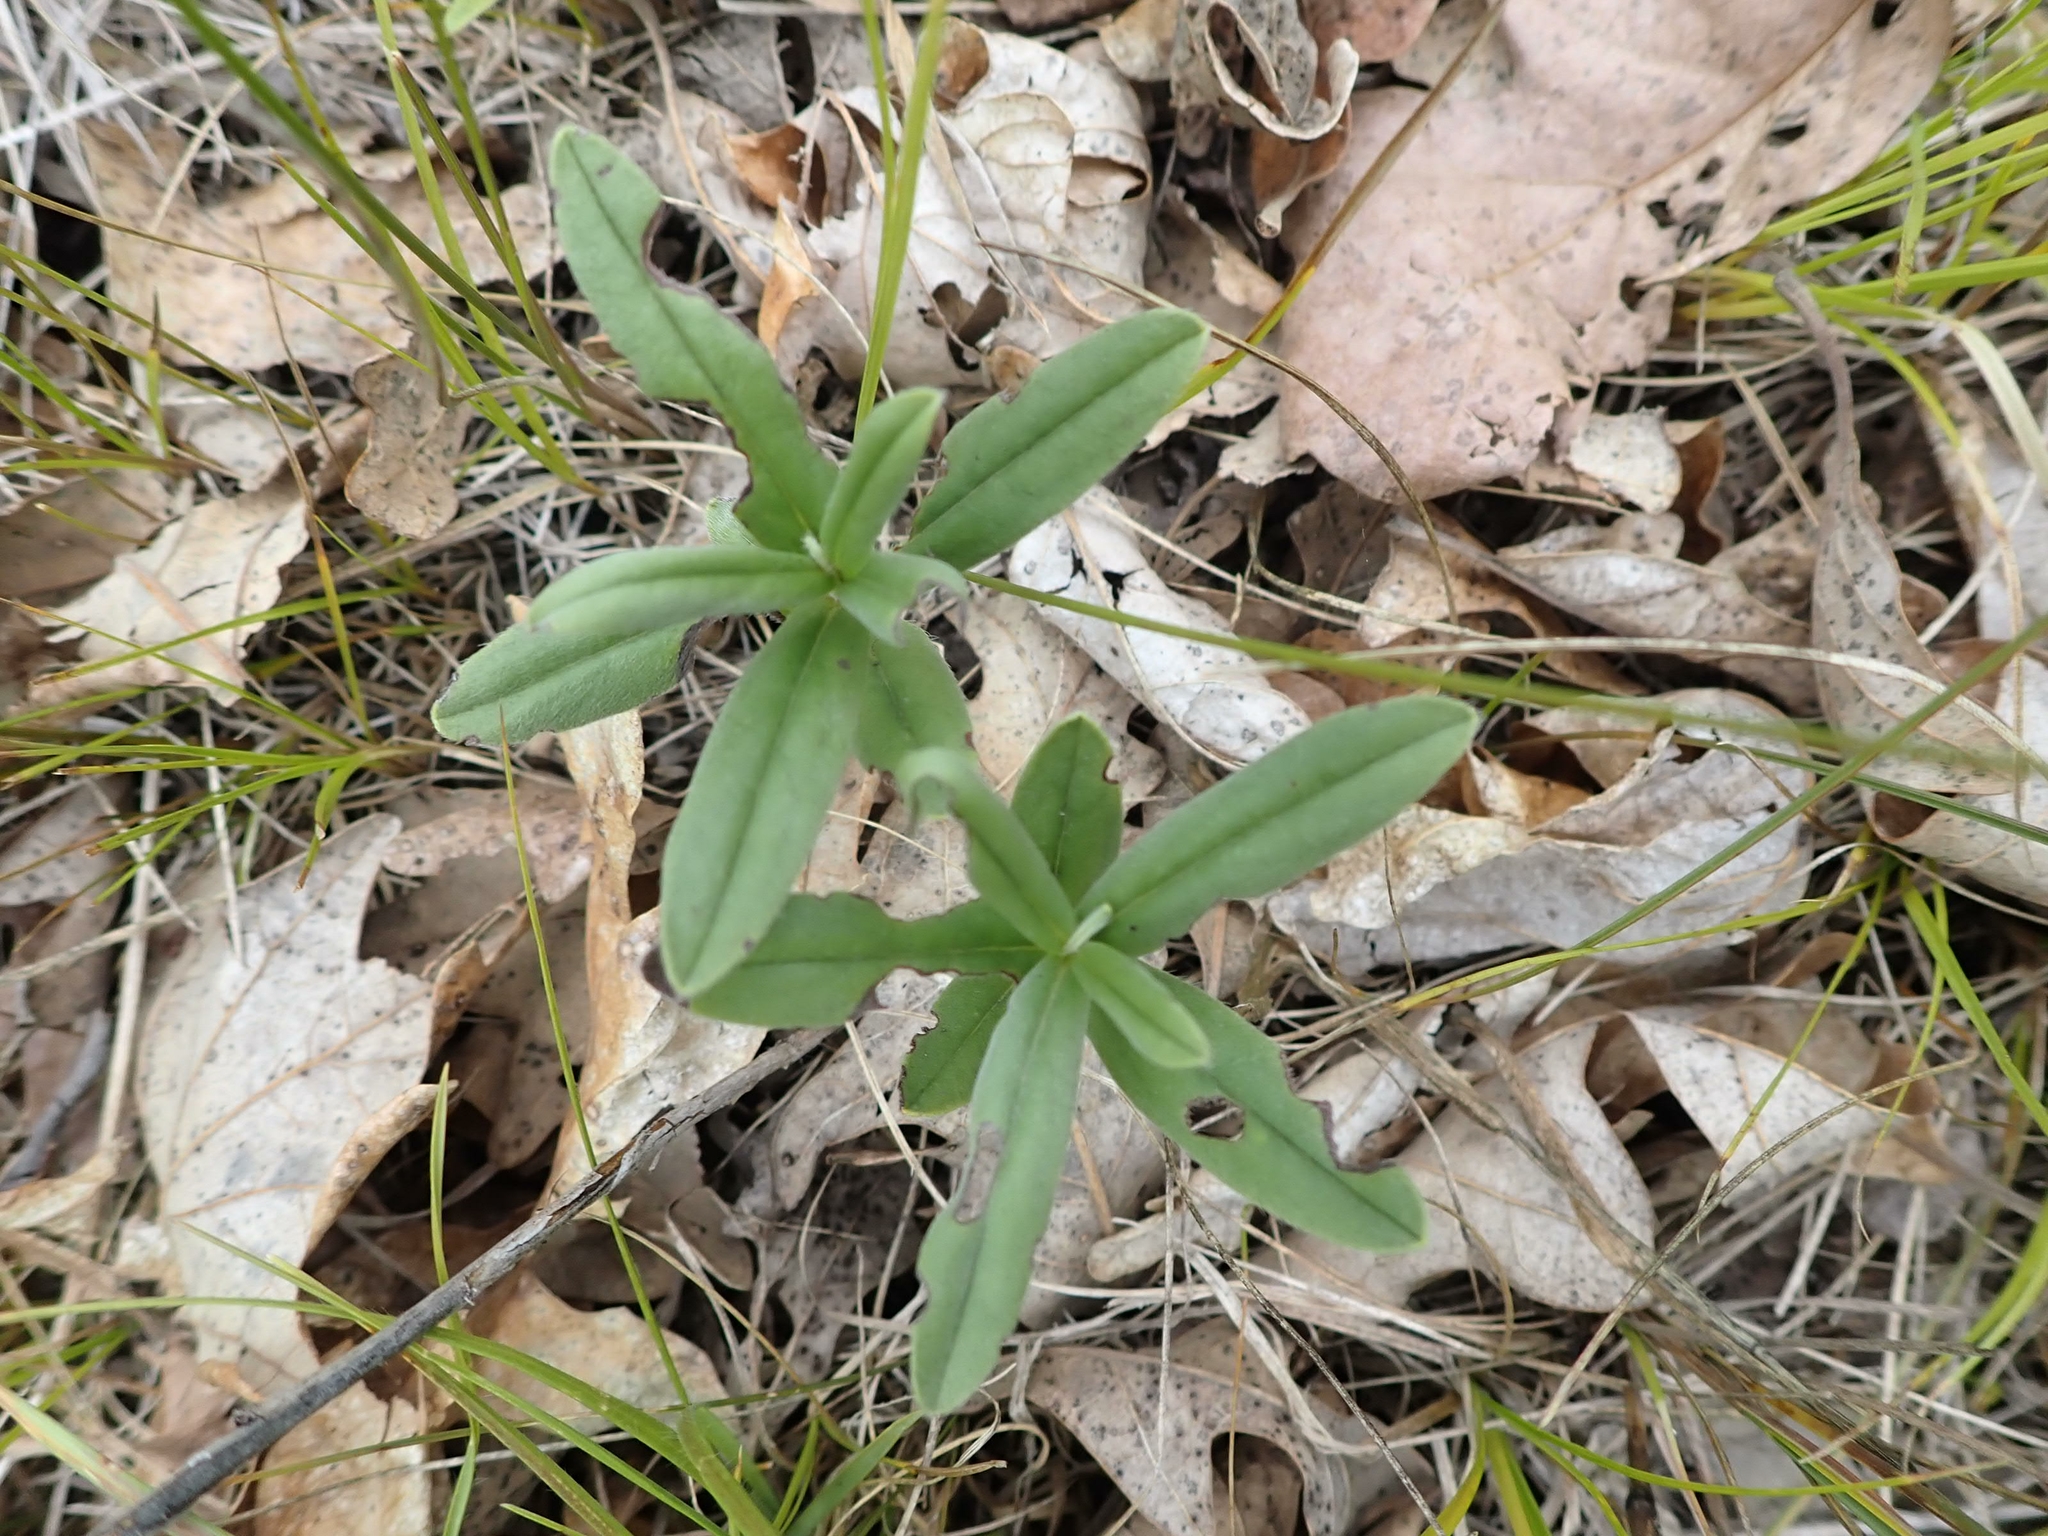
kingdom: Plantae
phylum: Tracheophyta
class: Magnoliopsida
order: Boraginales
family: Boraginaceae
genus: Lithospermum
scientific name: Lithospermum canescens
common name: Hoary puccoon
